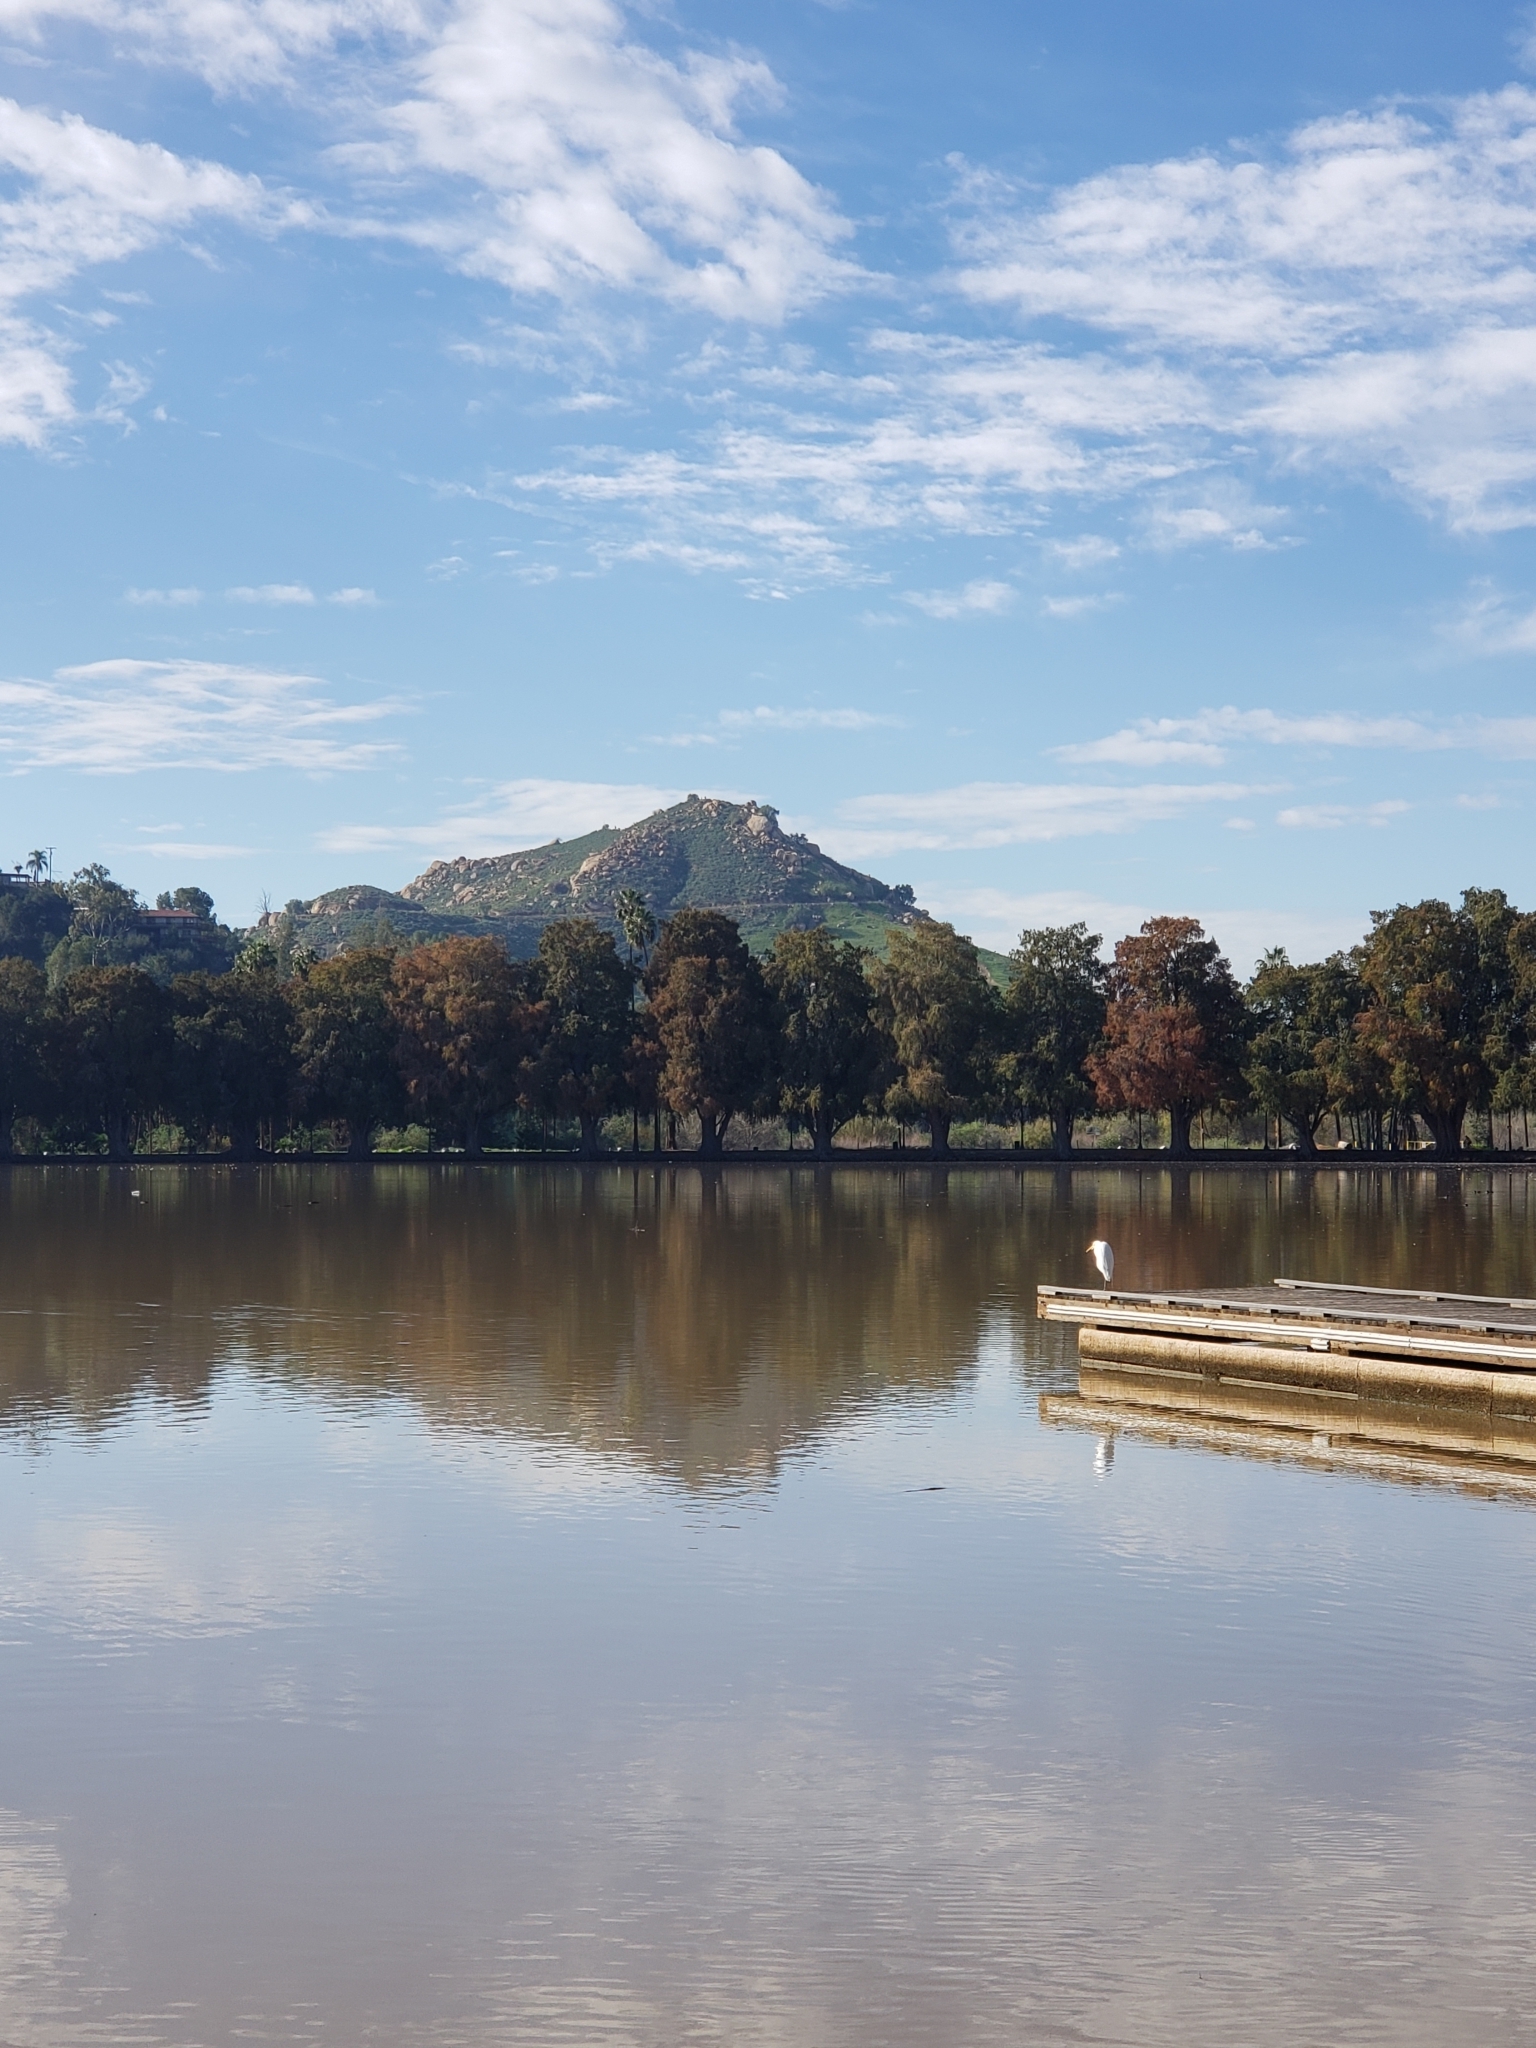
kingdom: Animalia
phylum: Chordata
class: Aves
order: Pelecaniformes
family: Ardeidae
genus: Ardea
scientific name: Ardea alba
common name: Great egret
